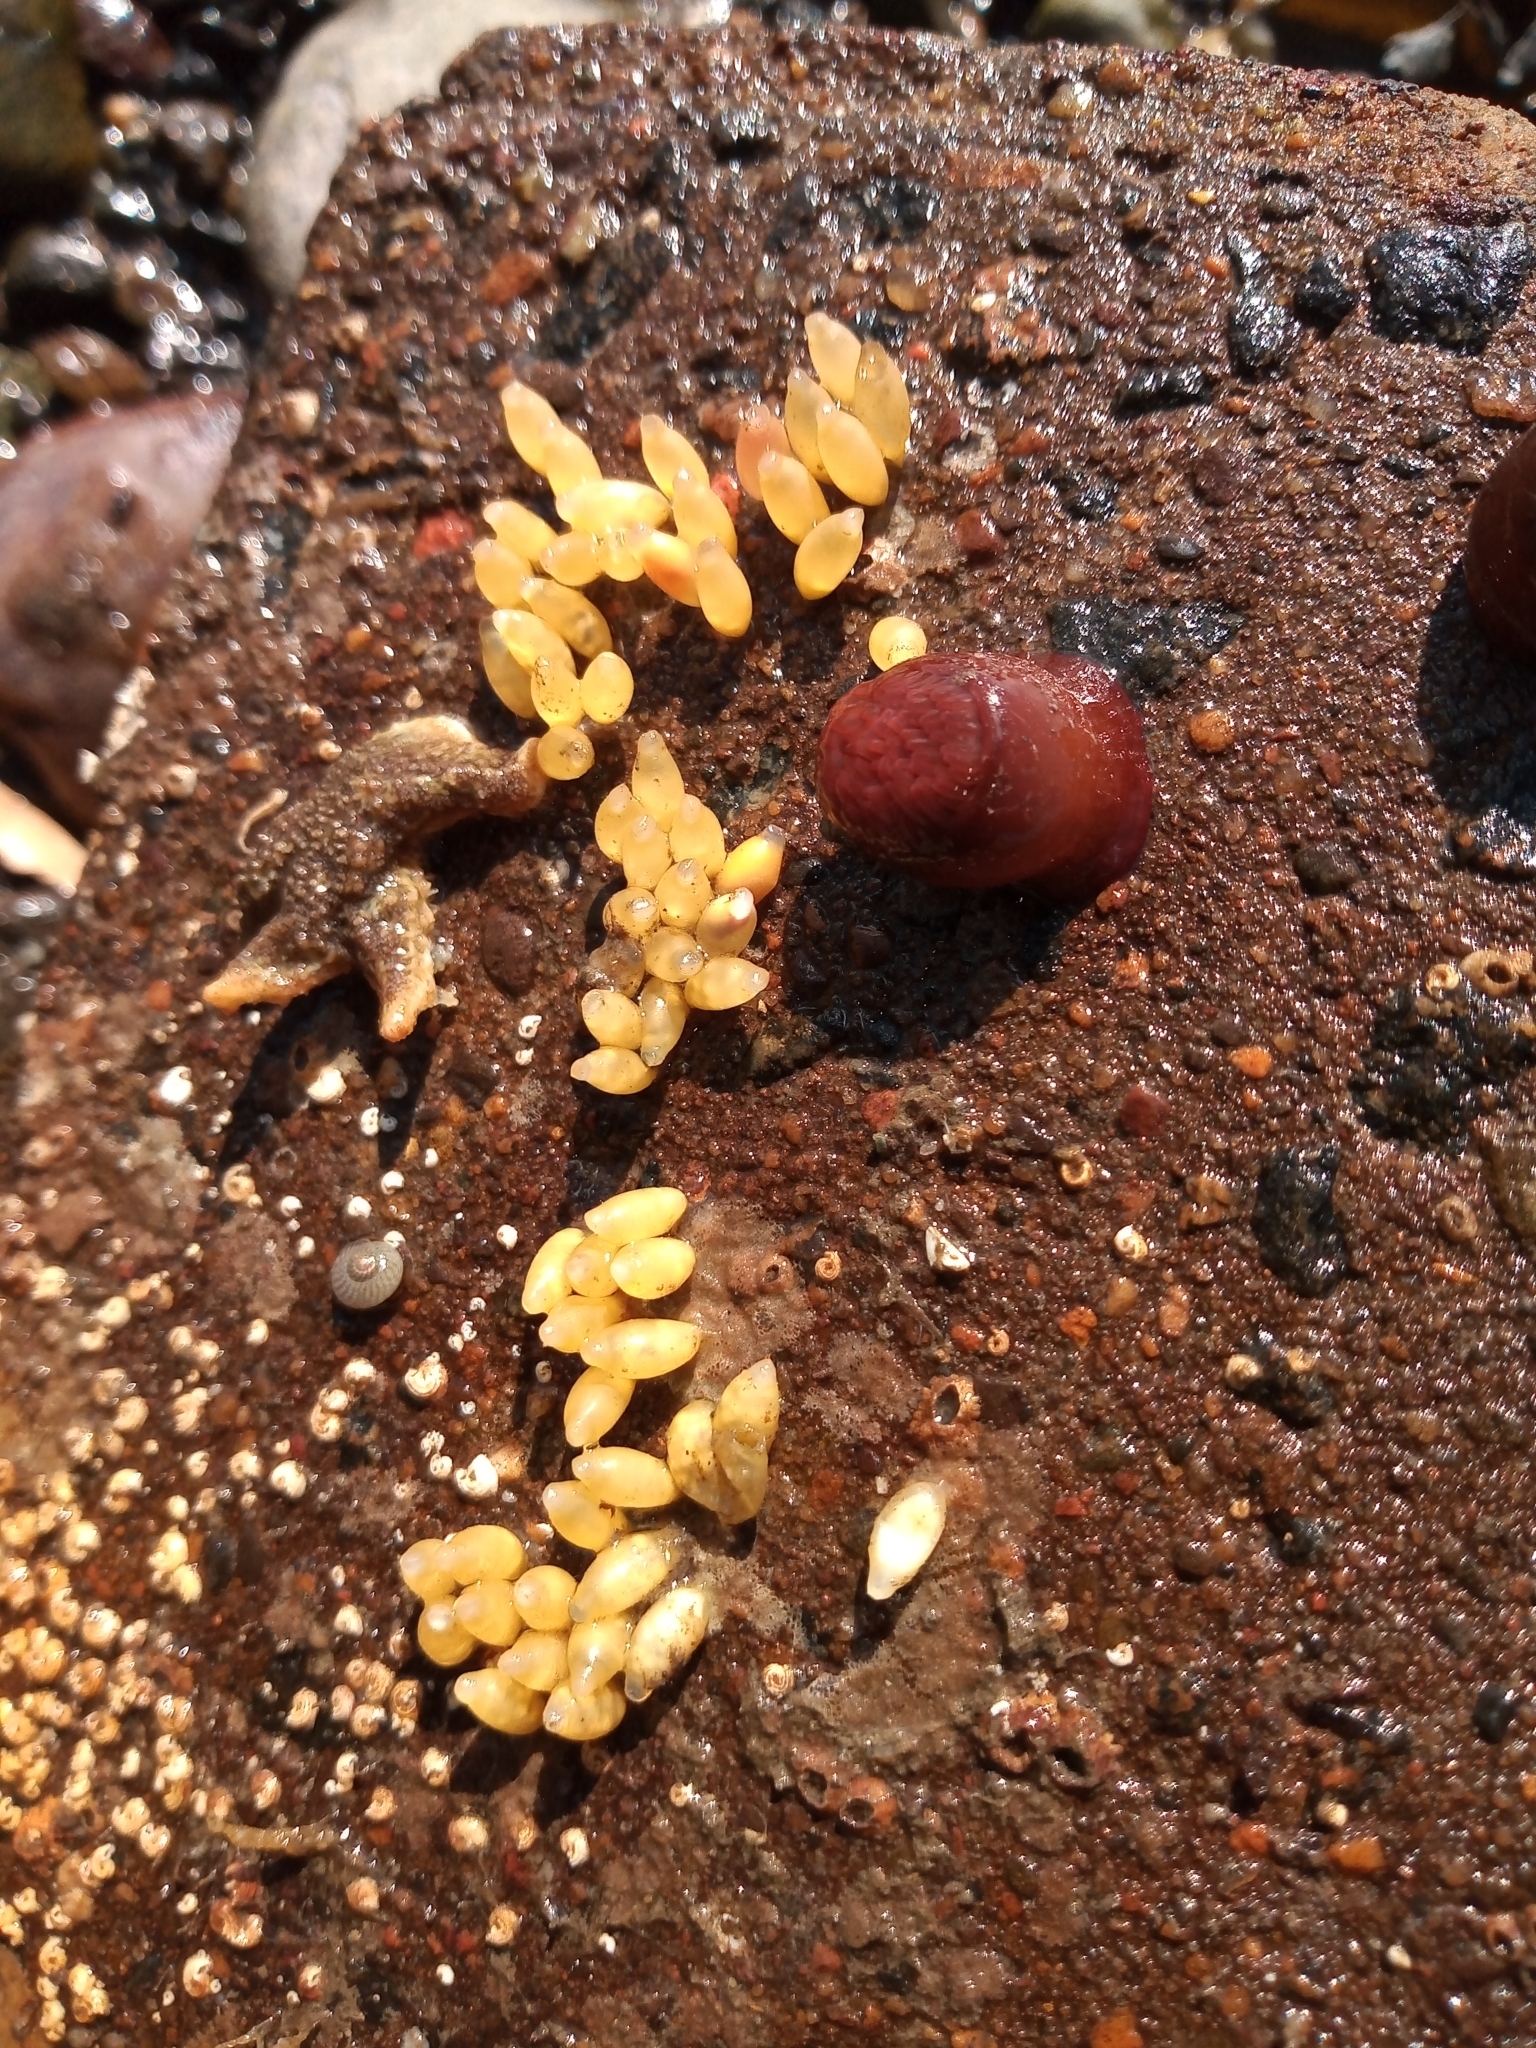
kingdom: Animalia
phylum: Mollusca
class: Gastropoda
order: Neogastropoda
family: Muricidae
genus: Nucella
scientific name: Nucella lapillus
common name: Dog whelk
